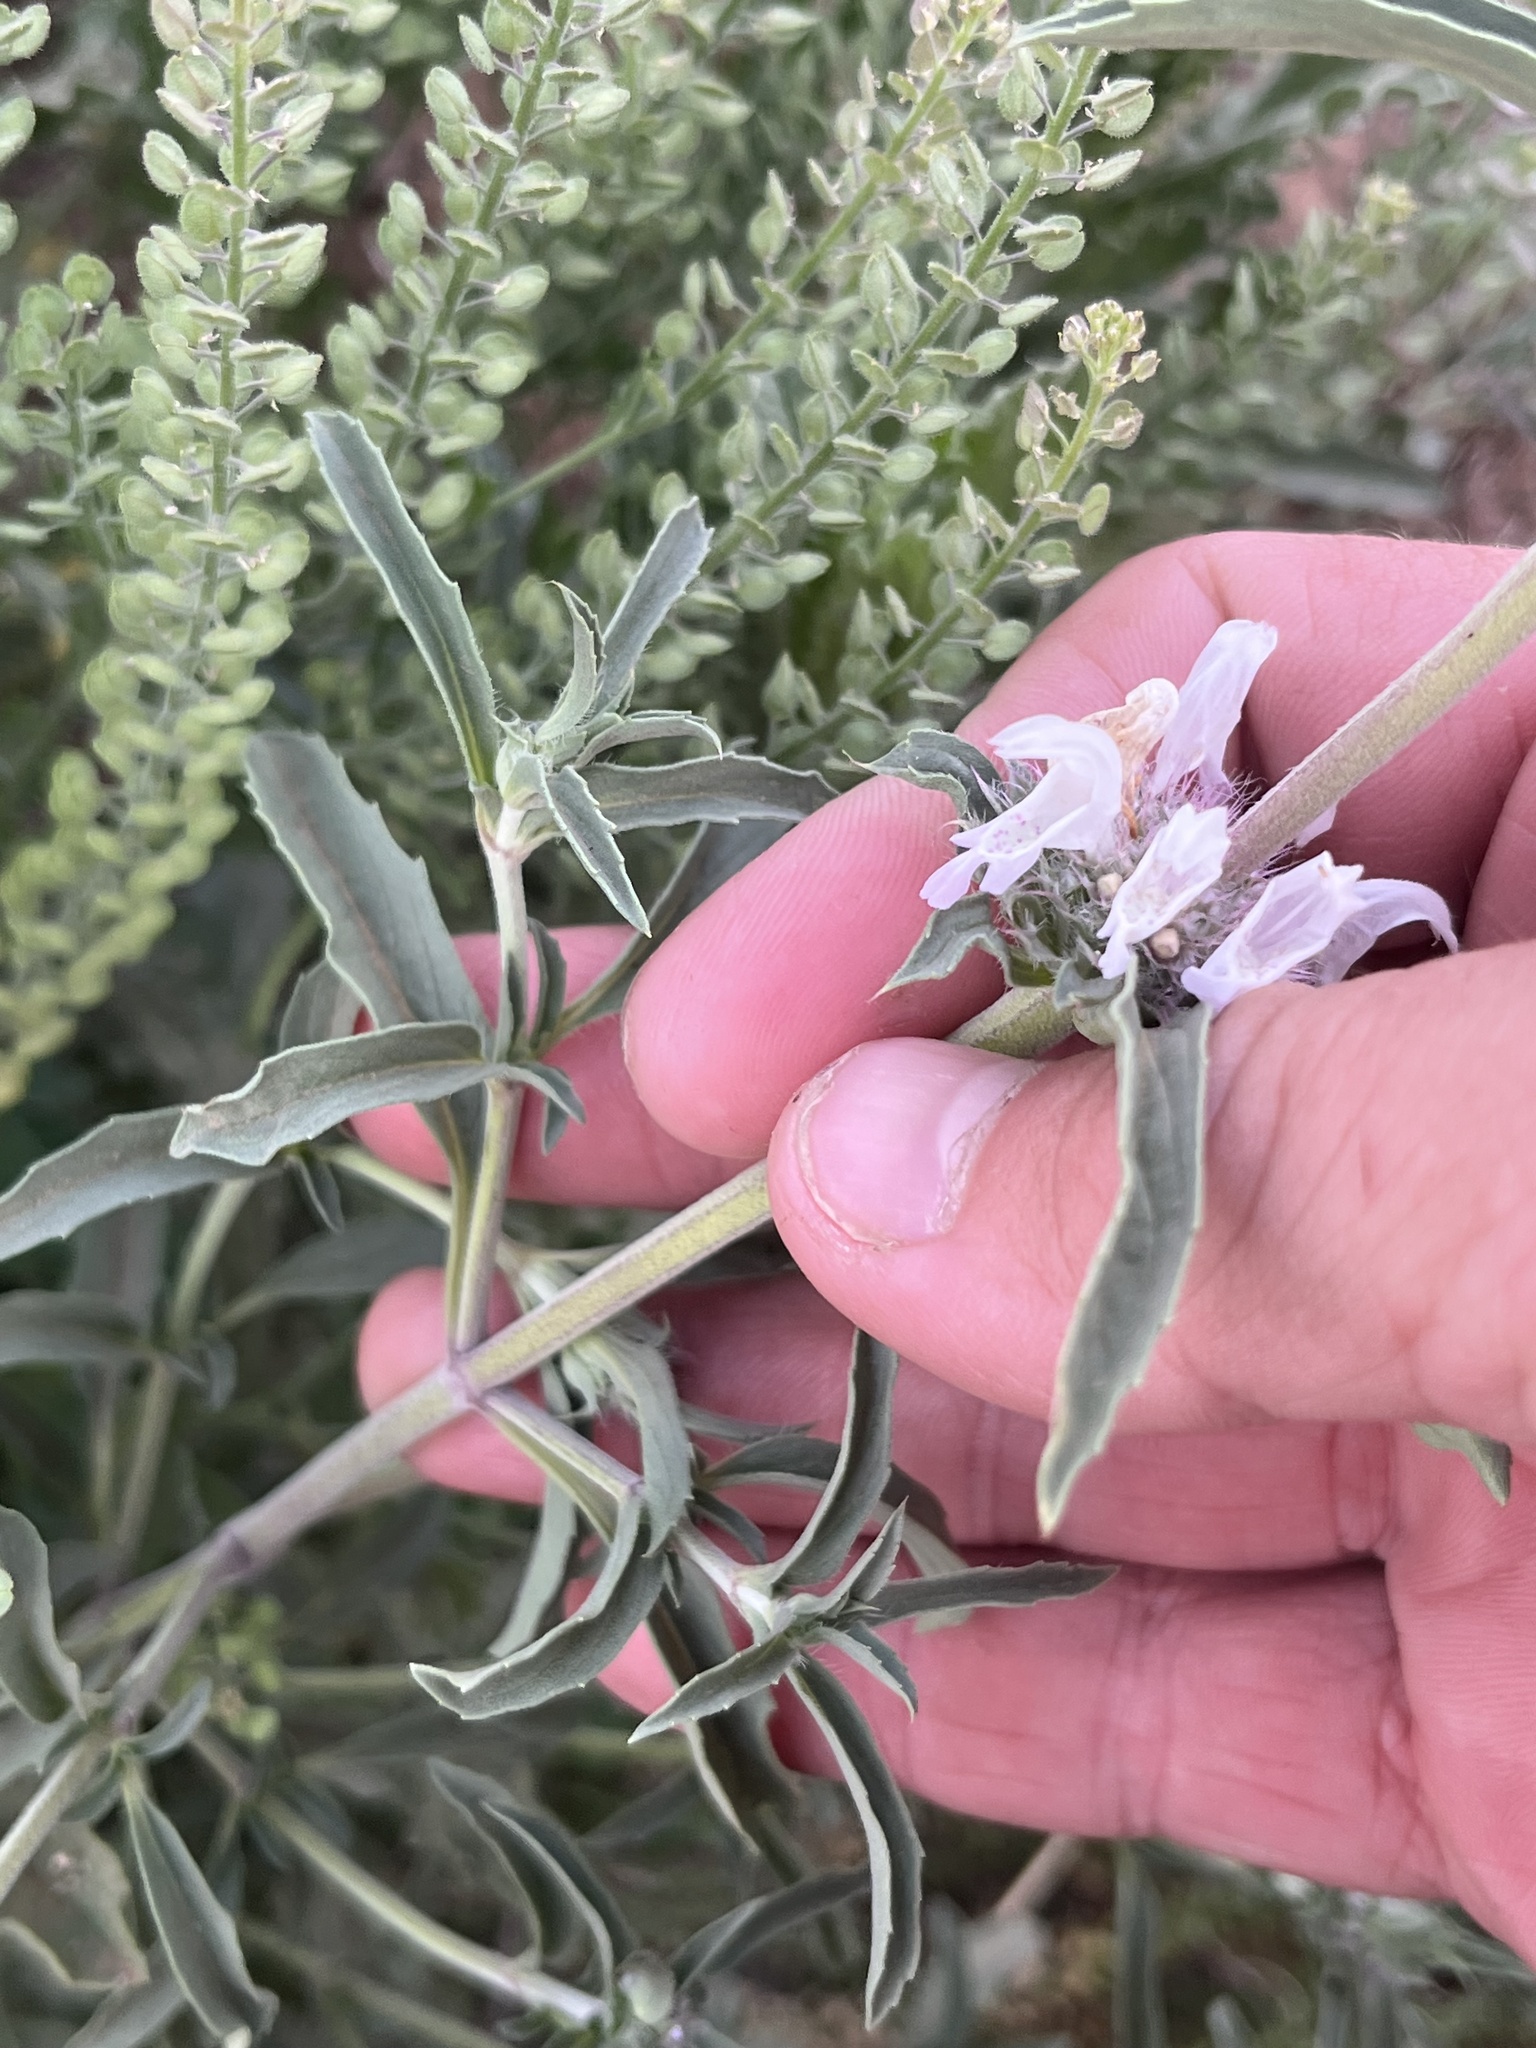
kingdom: Plantae
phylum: Tracheophyta
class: Magnoliopsida
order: Lamiales
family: Lamiaceae
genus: Monarda
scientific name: Monarda pectinata
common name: Plains beebalm
